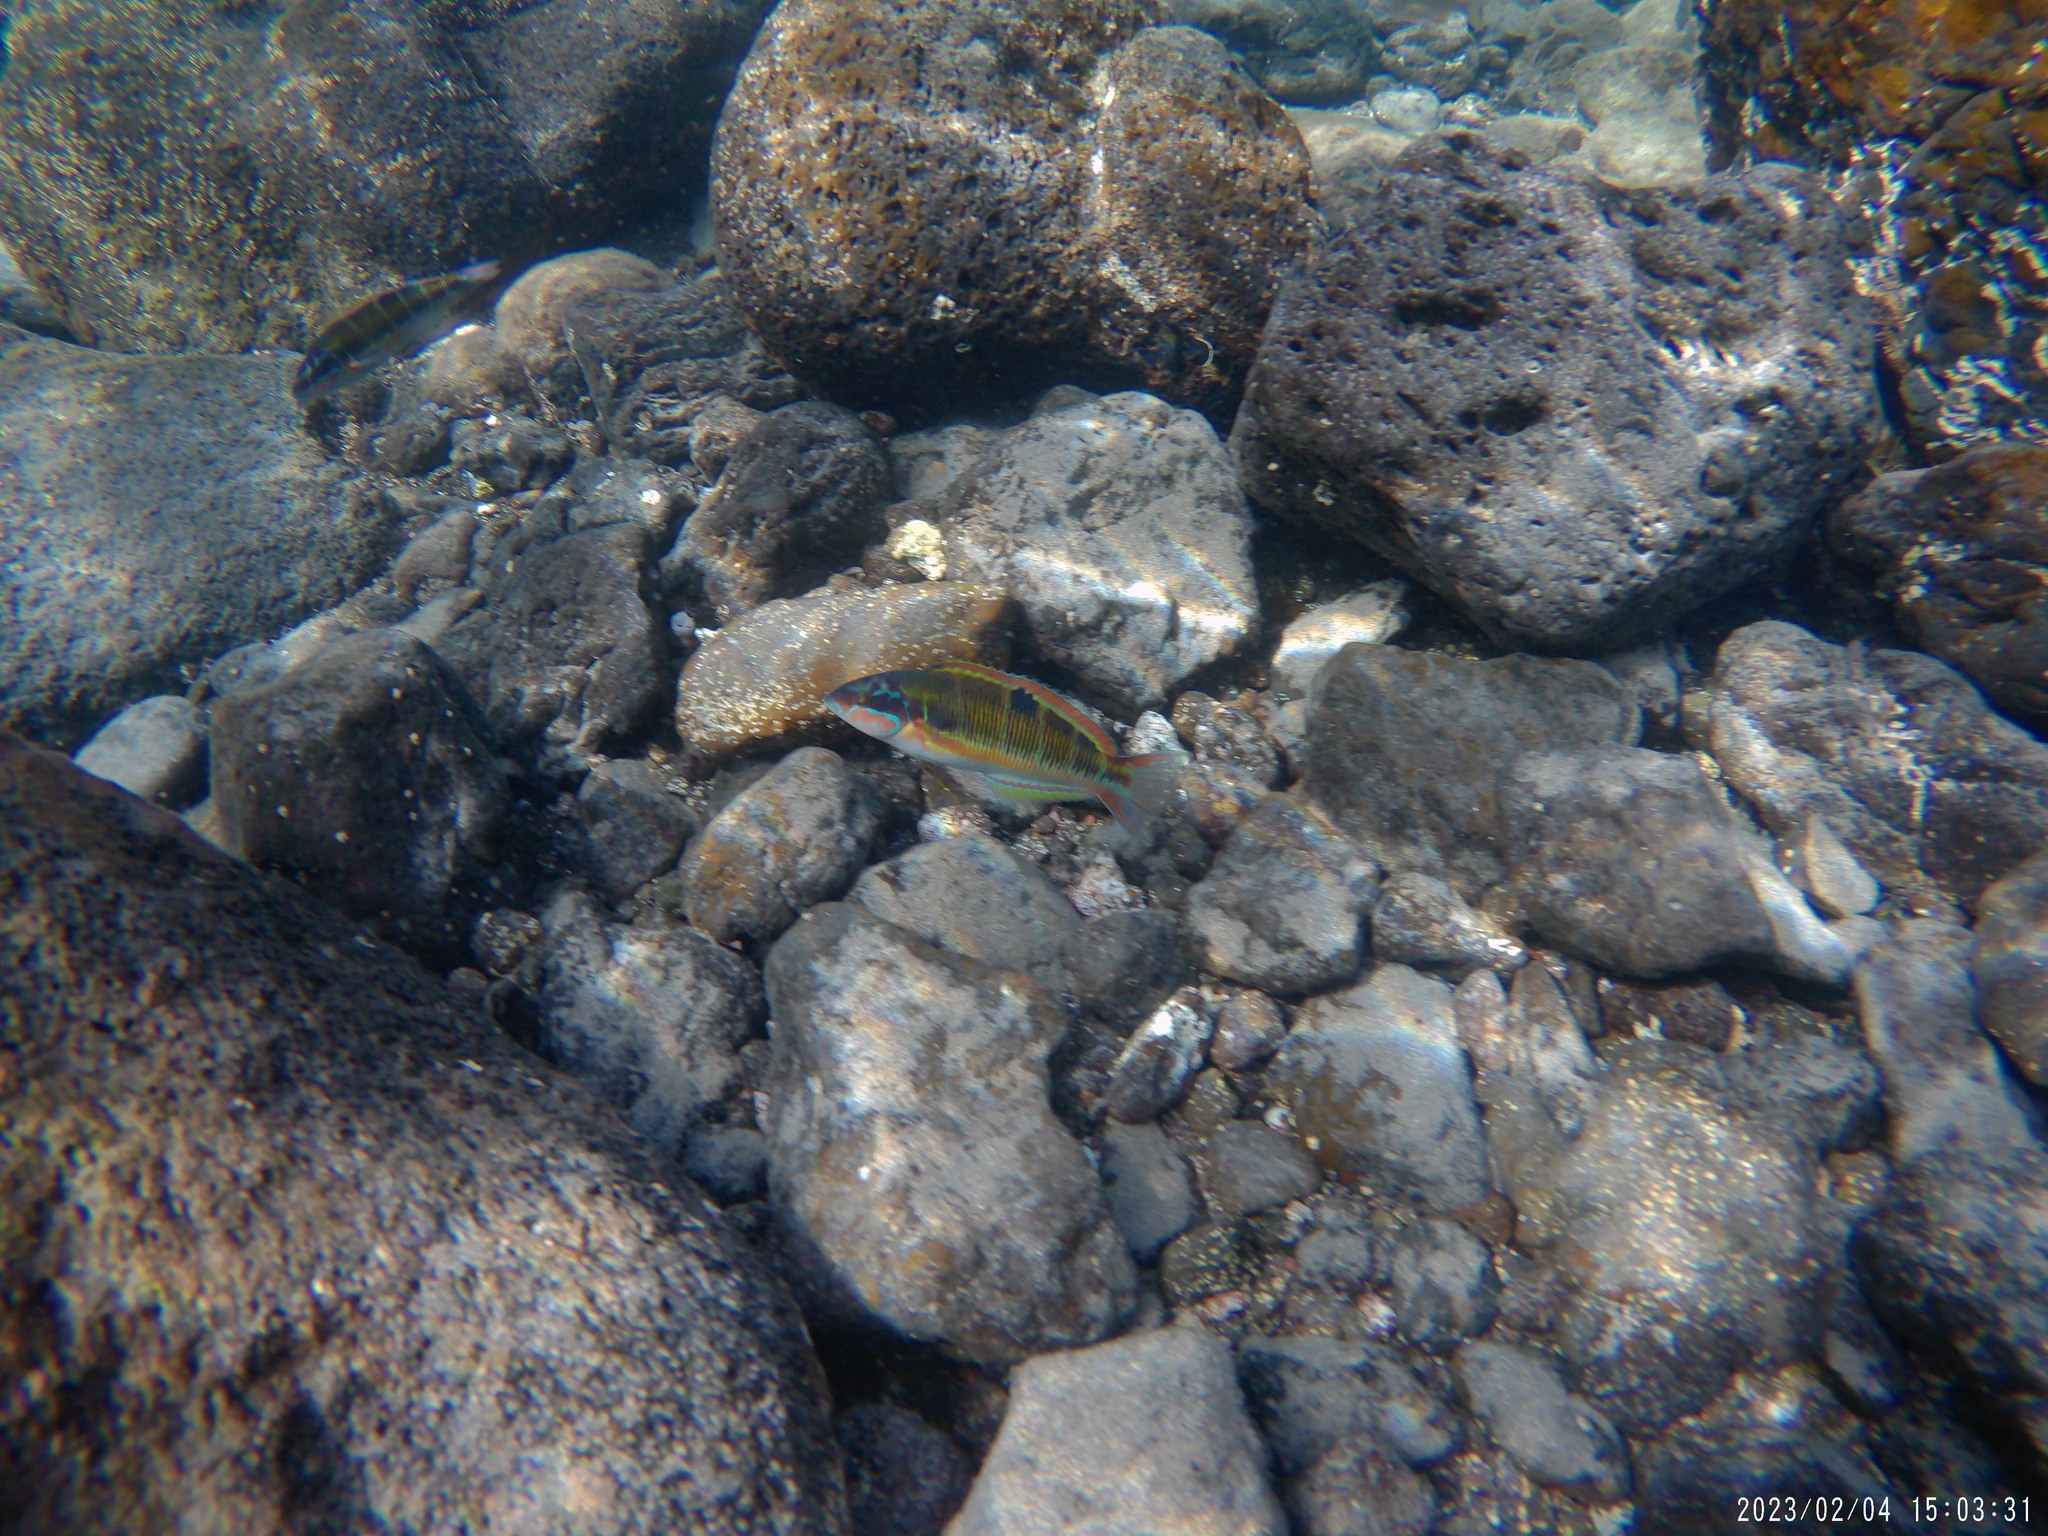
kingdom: Animalia
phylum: Chordata
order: Perciformes
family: Labridae
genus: Thalassoma
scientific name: Thalassoma pavo
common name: Ornate wrasse
